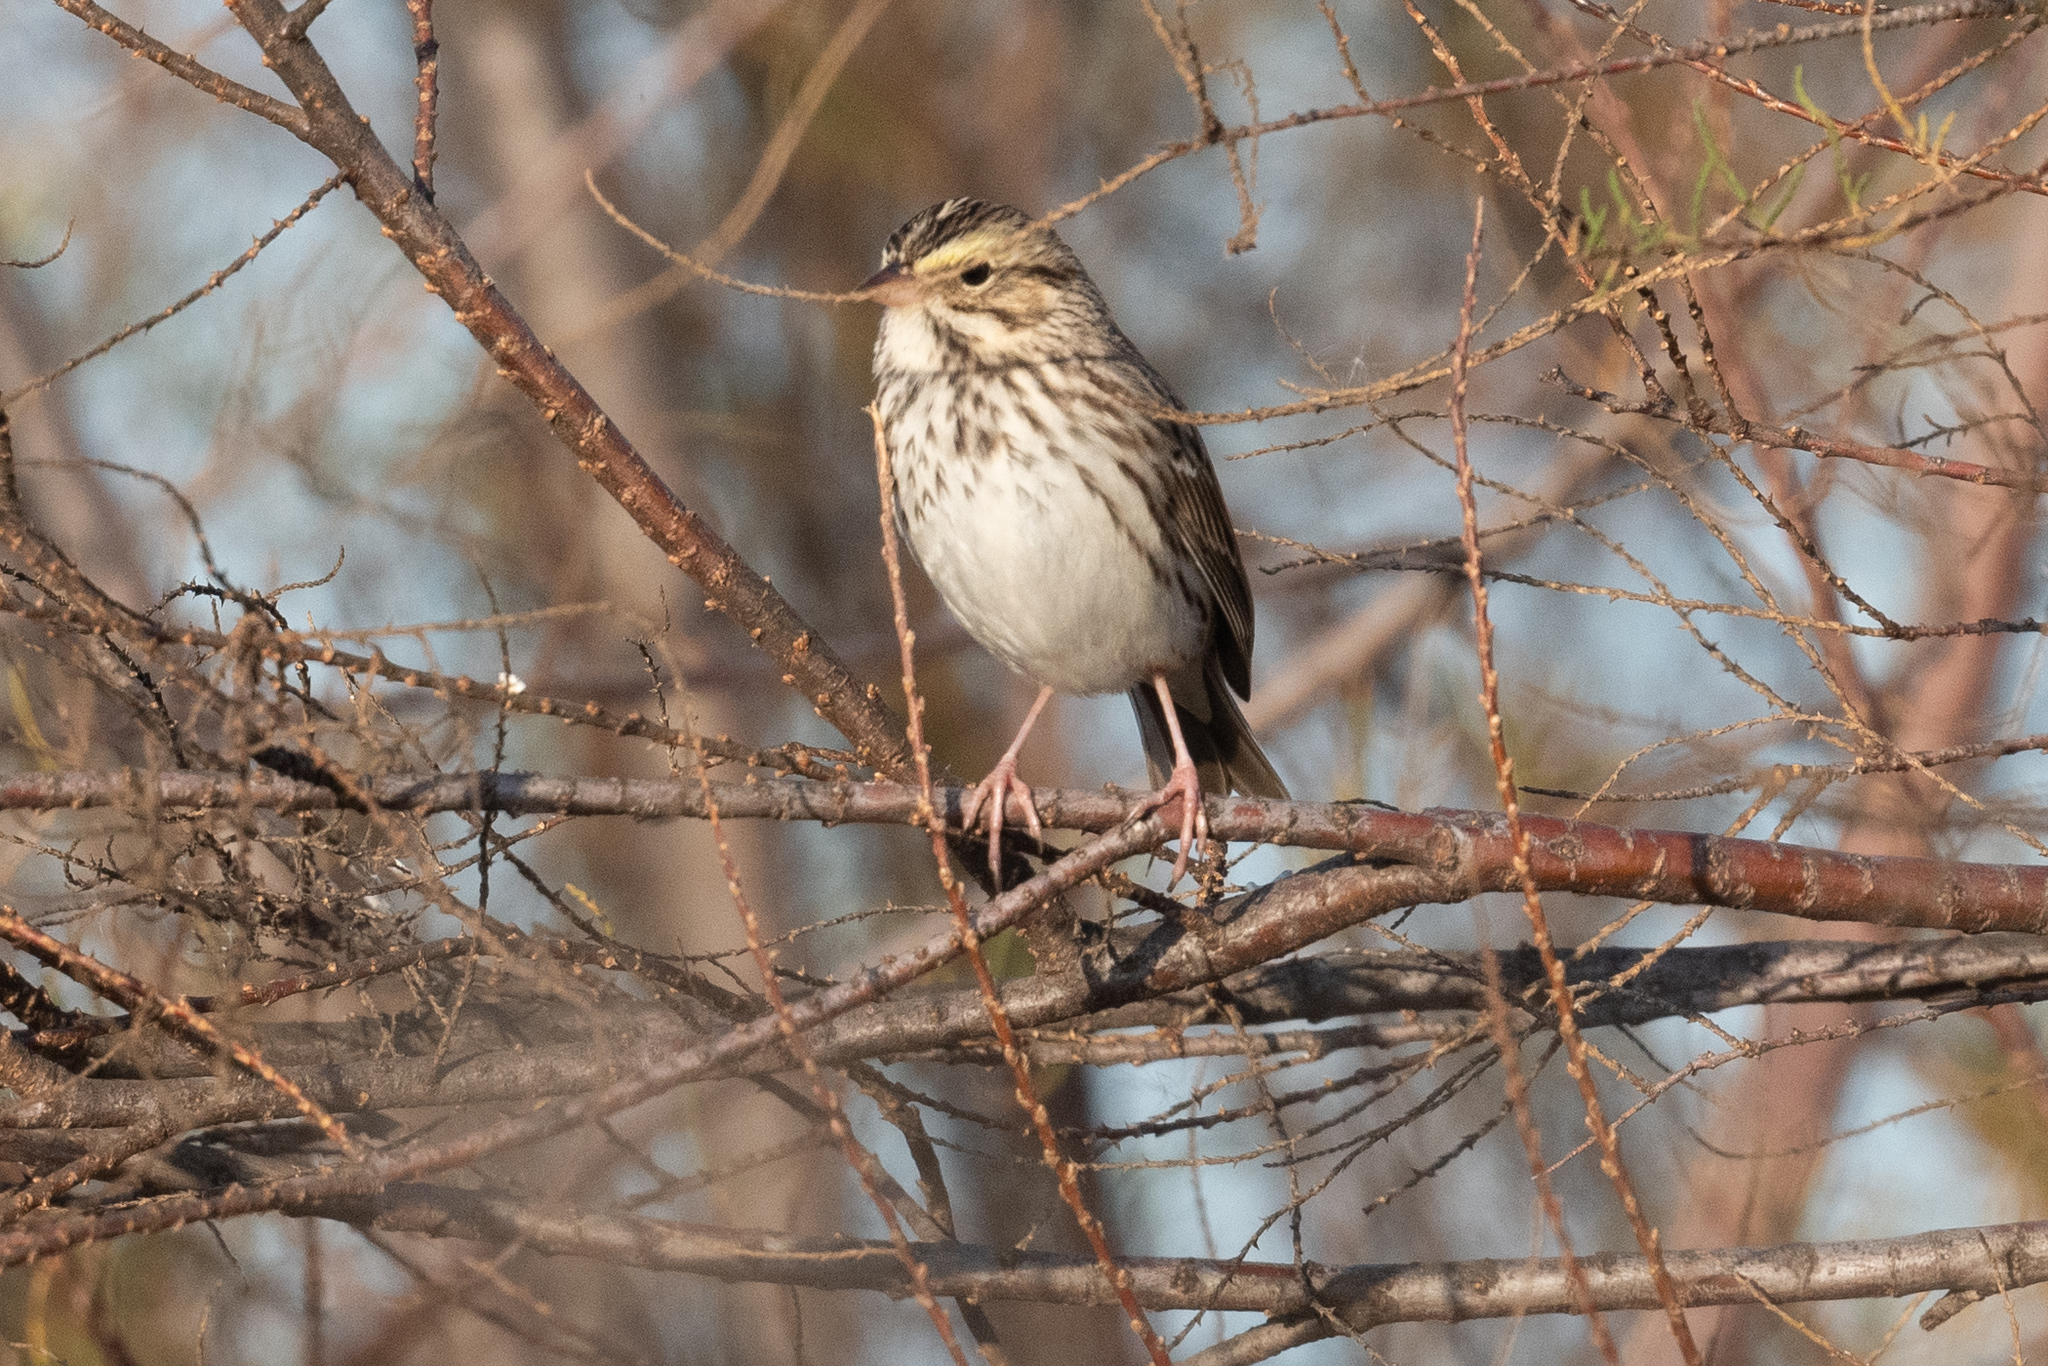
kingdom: Animalia
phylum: Chordata
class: Aves
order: Passeriformes
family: Passerellidae
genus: Passerculus
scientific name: Passerculus sandwichensis
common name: Savannah sparrow
